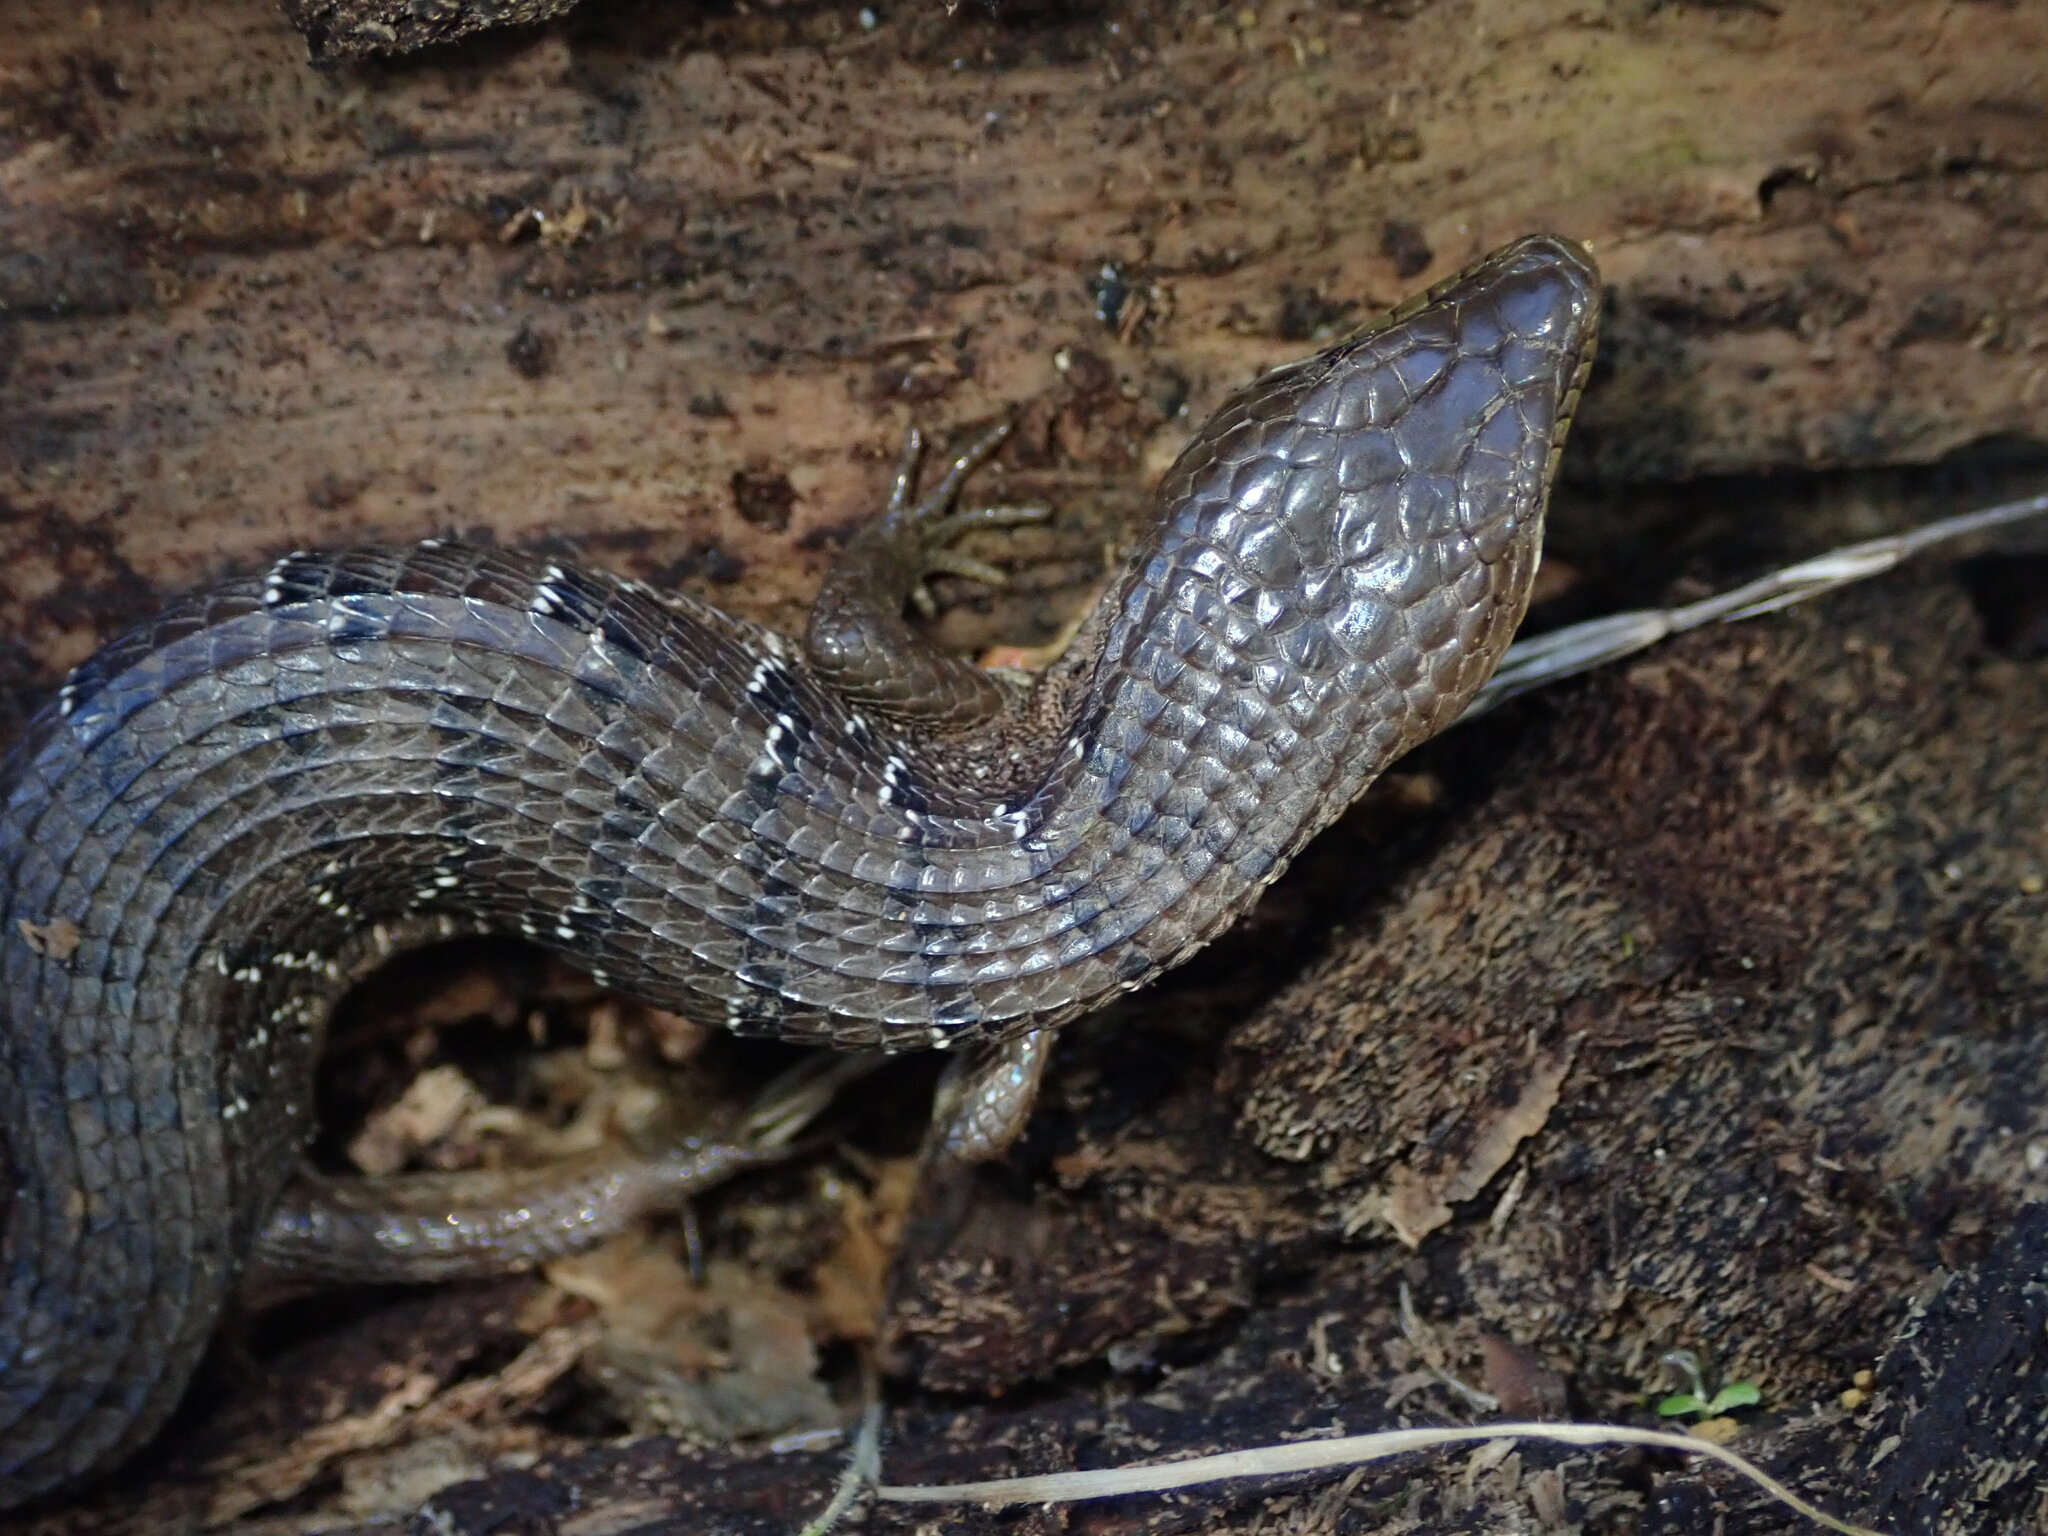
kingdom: Animalia
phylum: Chordata
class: Squamata
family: Anguidae
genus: Elgaria
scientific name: Elgaria multicarinata
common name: Southern alligator lizard
